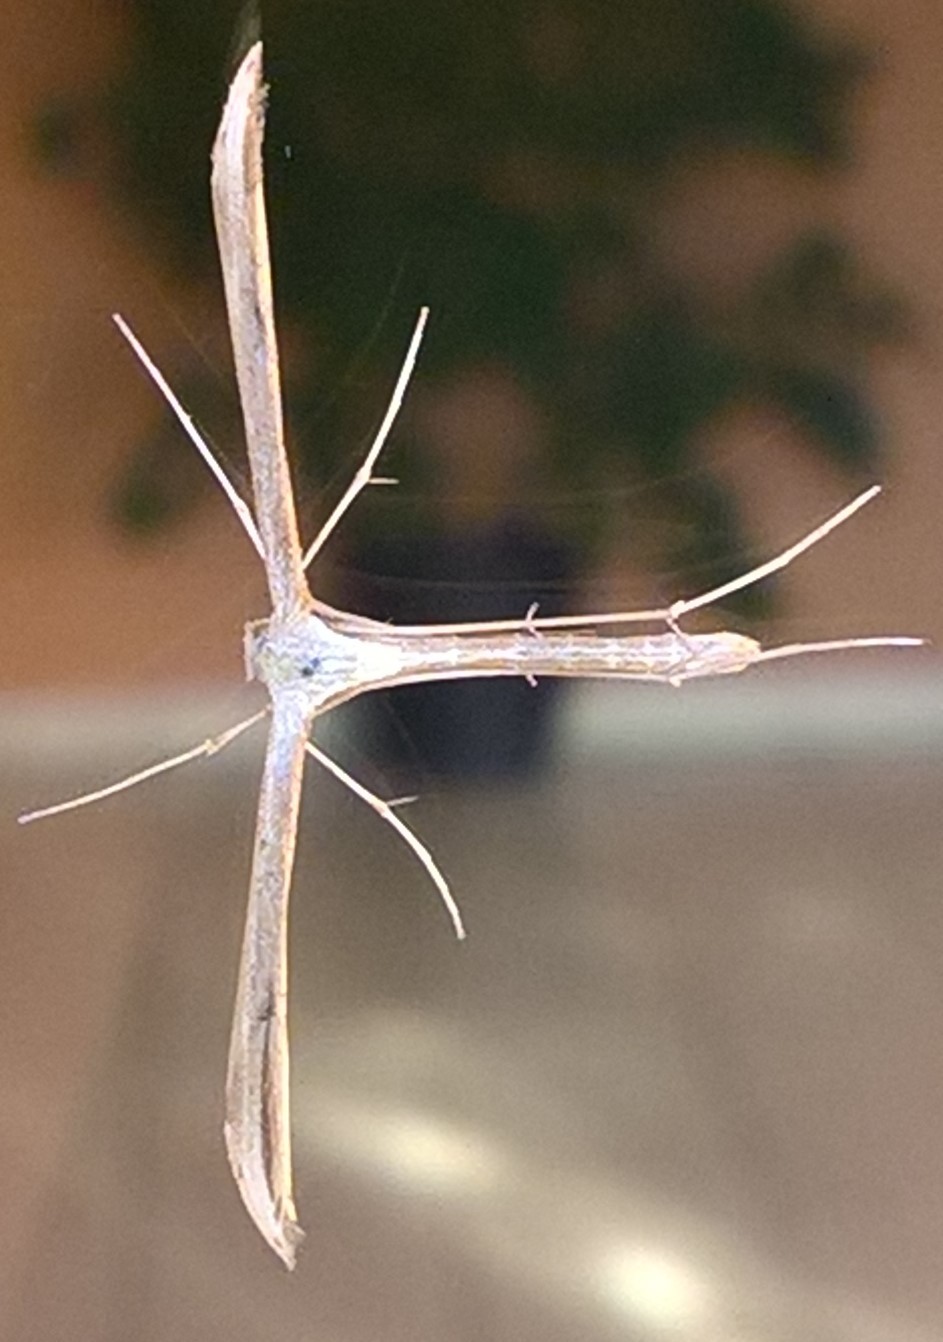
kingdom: Animalia
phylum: Arthropoda
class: Insecta
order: Lepidoptera
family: Pterophoridae
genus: Emmelina
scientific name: Emmelina monodactyla
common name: Common plume
